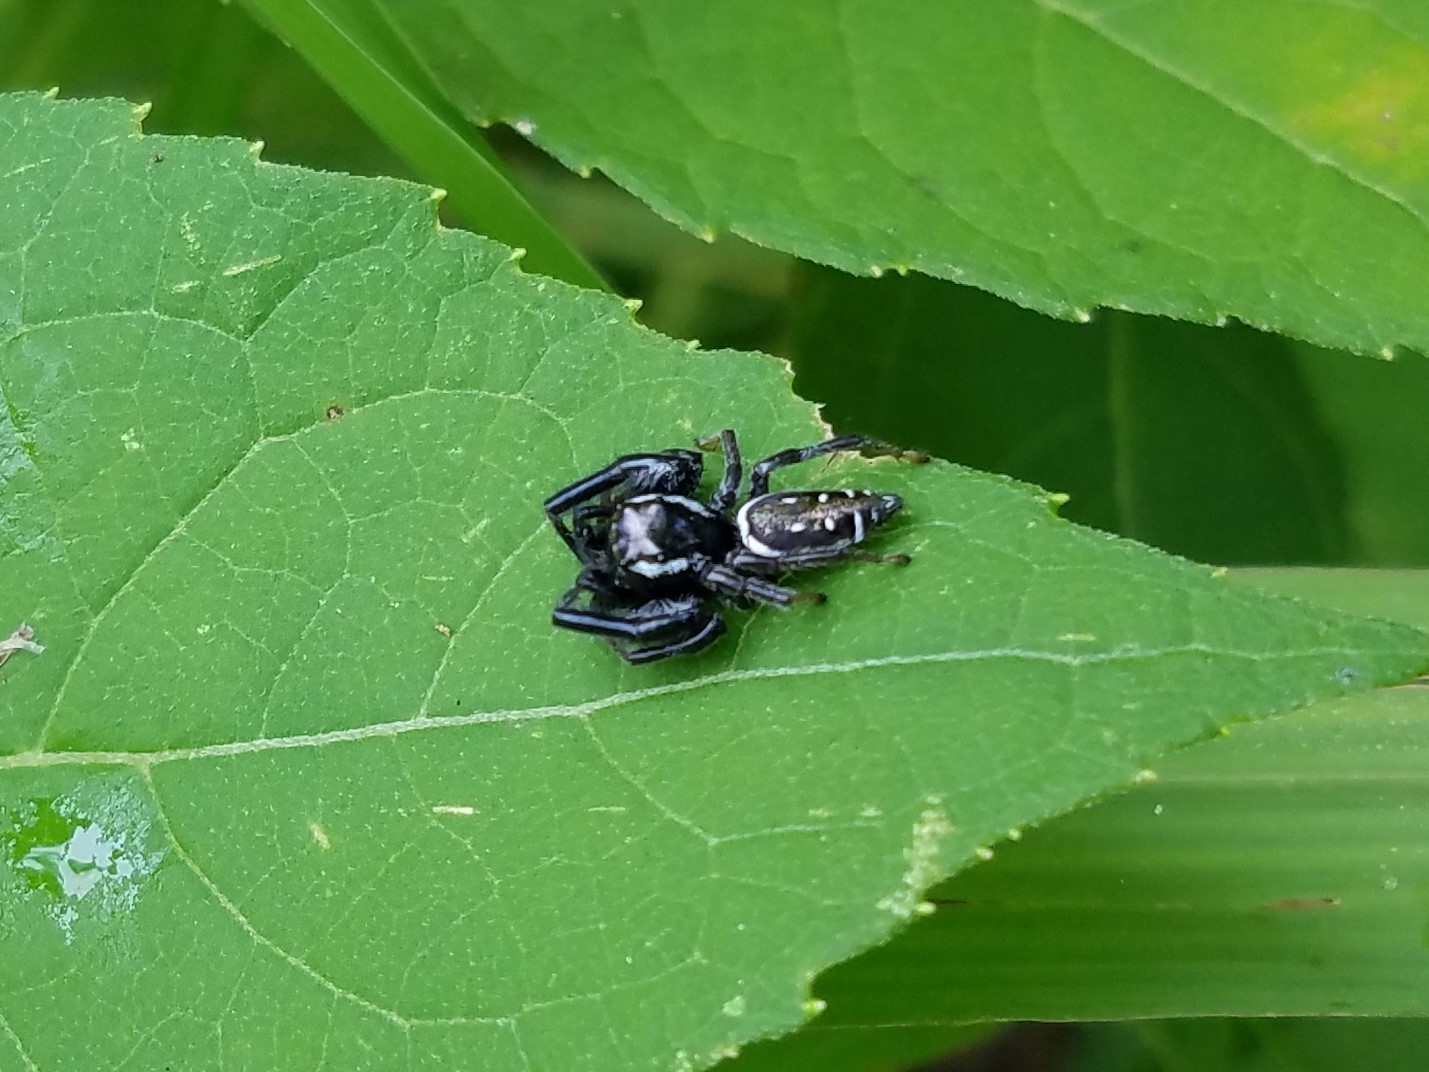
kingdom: Animalia
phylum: Arthropoda
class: Arachnida
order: Araneae
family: Salticidae
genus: Paraphidippus
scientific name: Paraphidippus aurantius
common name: Jumping spiders
